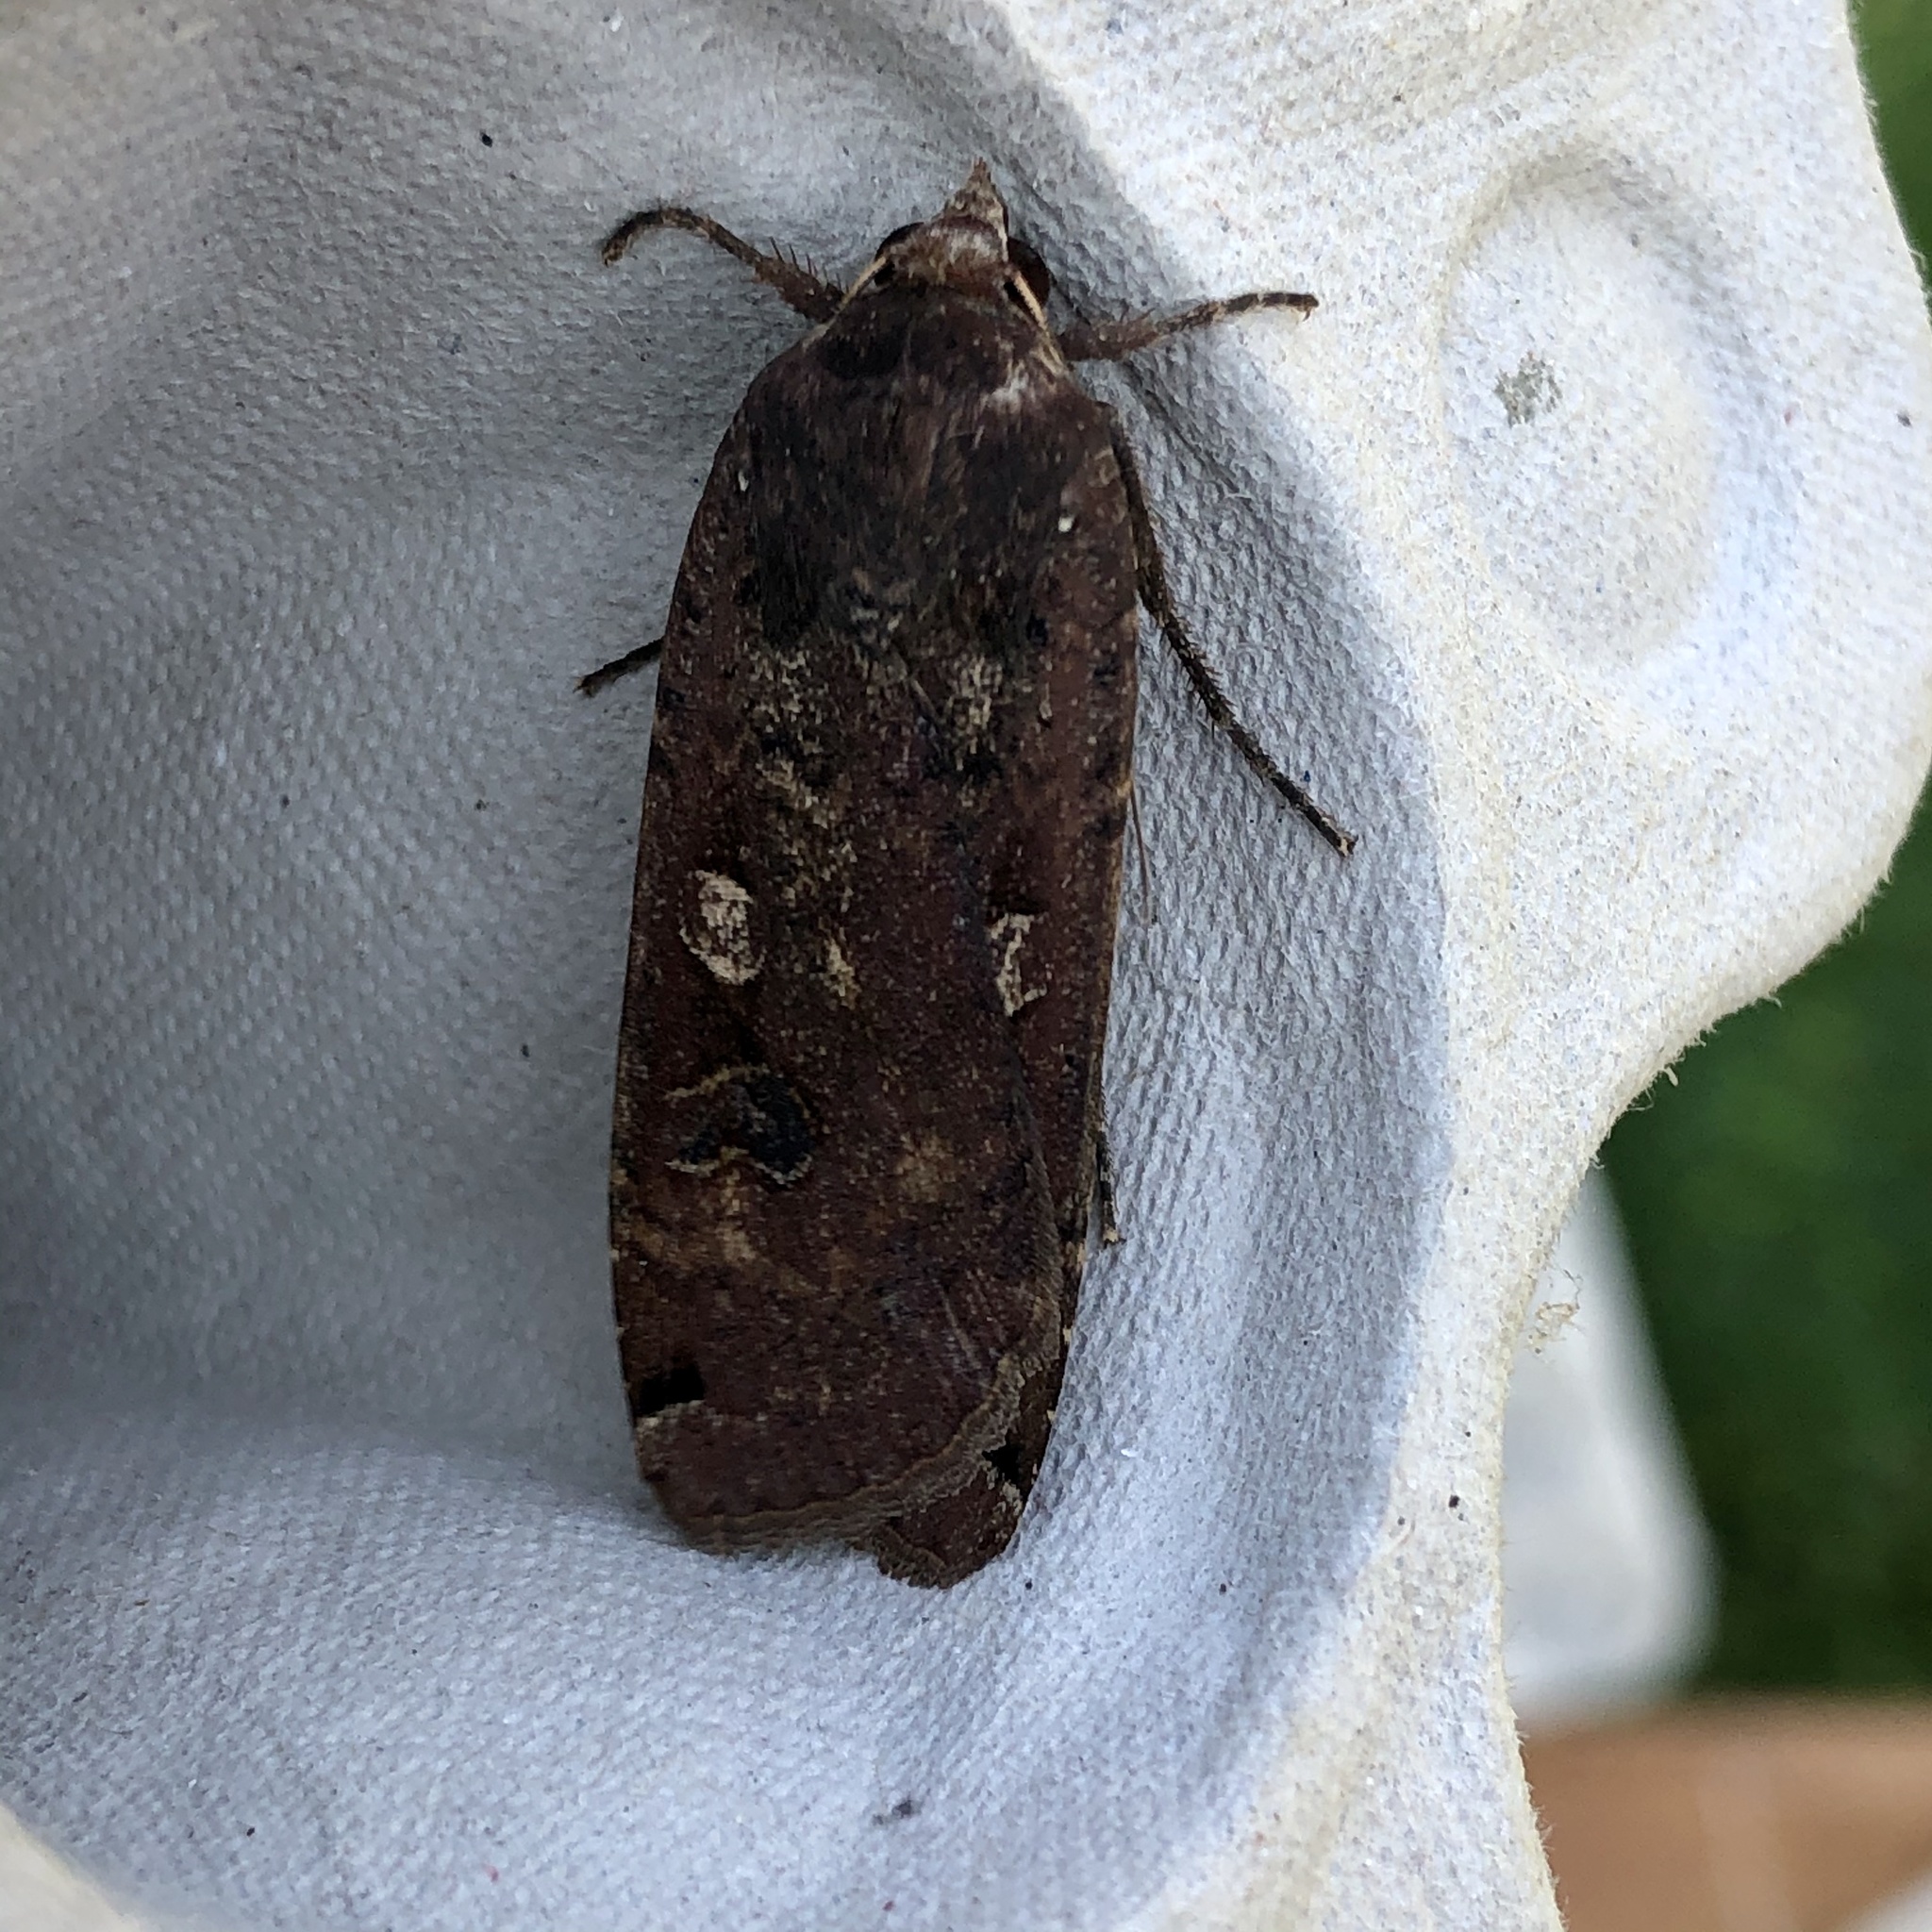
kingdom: Animalia
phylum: Arthropoda
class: Insecta
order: Lepidoptera
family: Noctuidae
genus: Noctua
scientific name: Noctua pronuba
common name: Large yellow underwing
